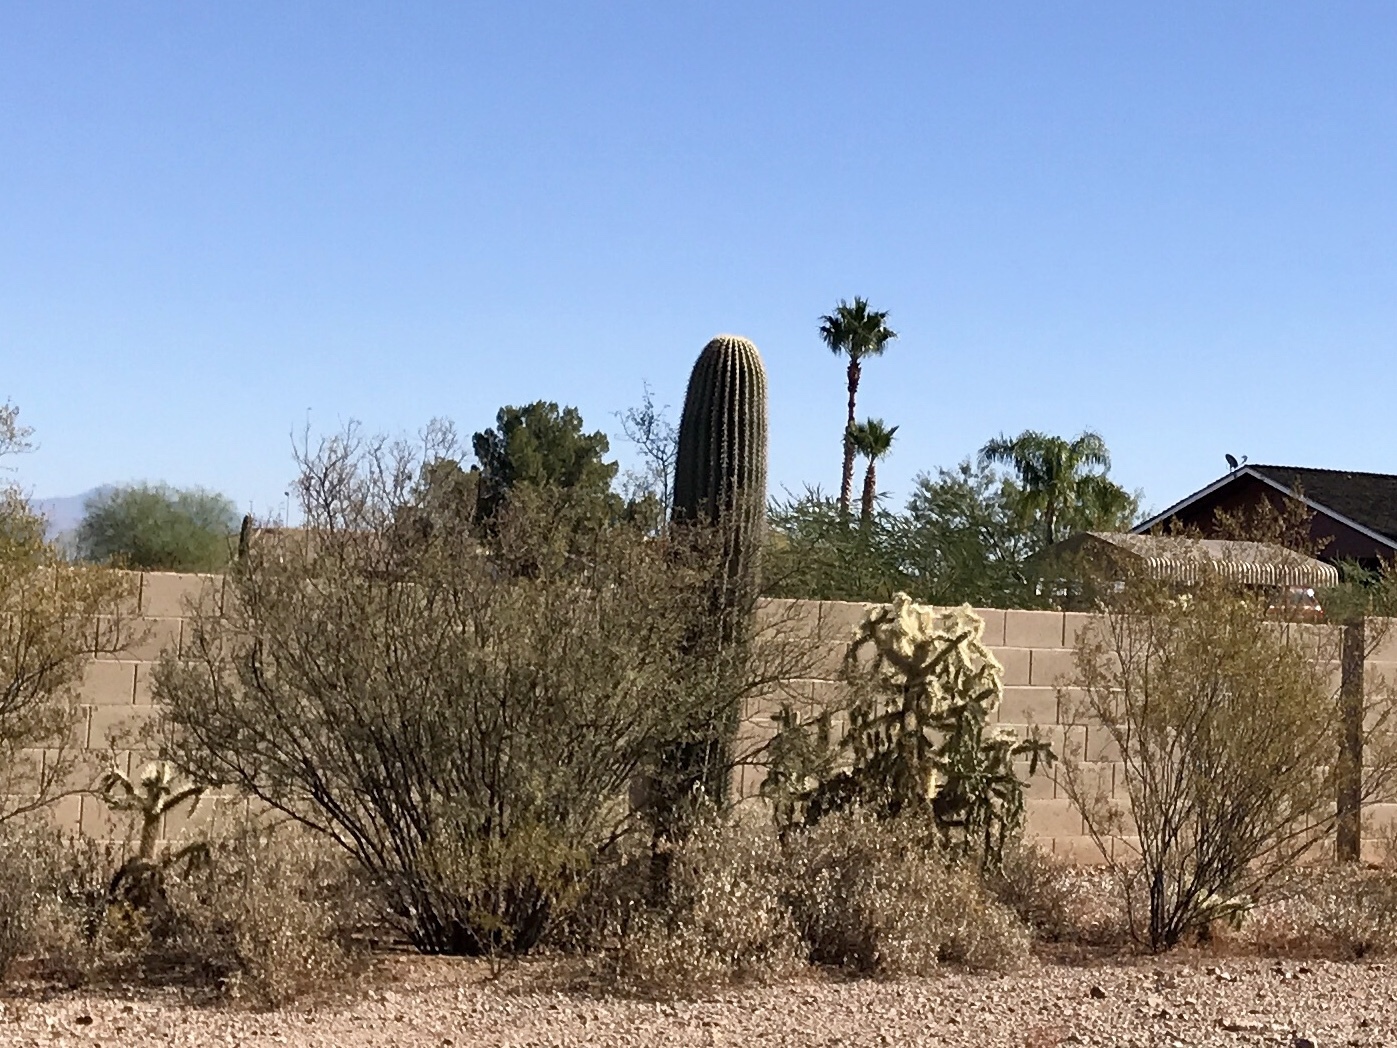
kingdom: Plantae
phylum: Tracheophyta
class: Magnoliopsida
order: Caryophyllales
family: Cactaceae
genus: Carnegiea
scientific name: Carnegiea gigantea
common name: Saguaro
